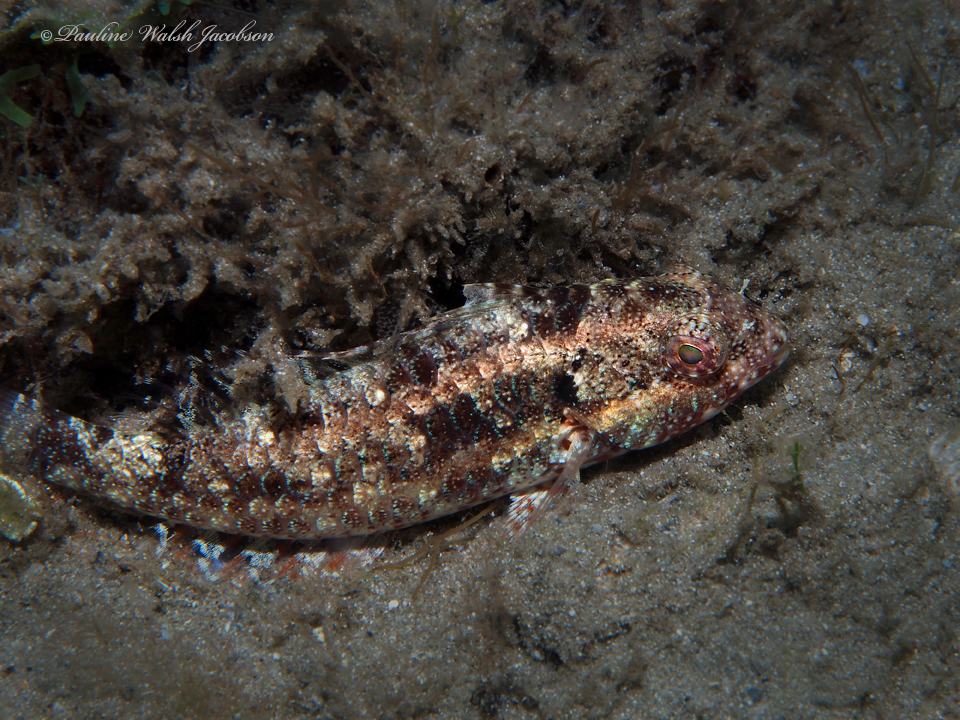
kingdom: Animalia
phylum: Chordata
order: Perciformes
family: Scaridae
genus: Sparisoma
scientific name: Sparisoma aurofrenatum
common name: Redband parrotfish
